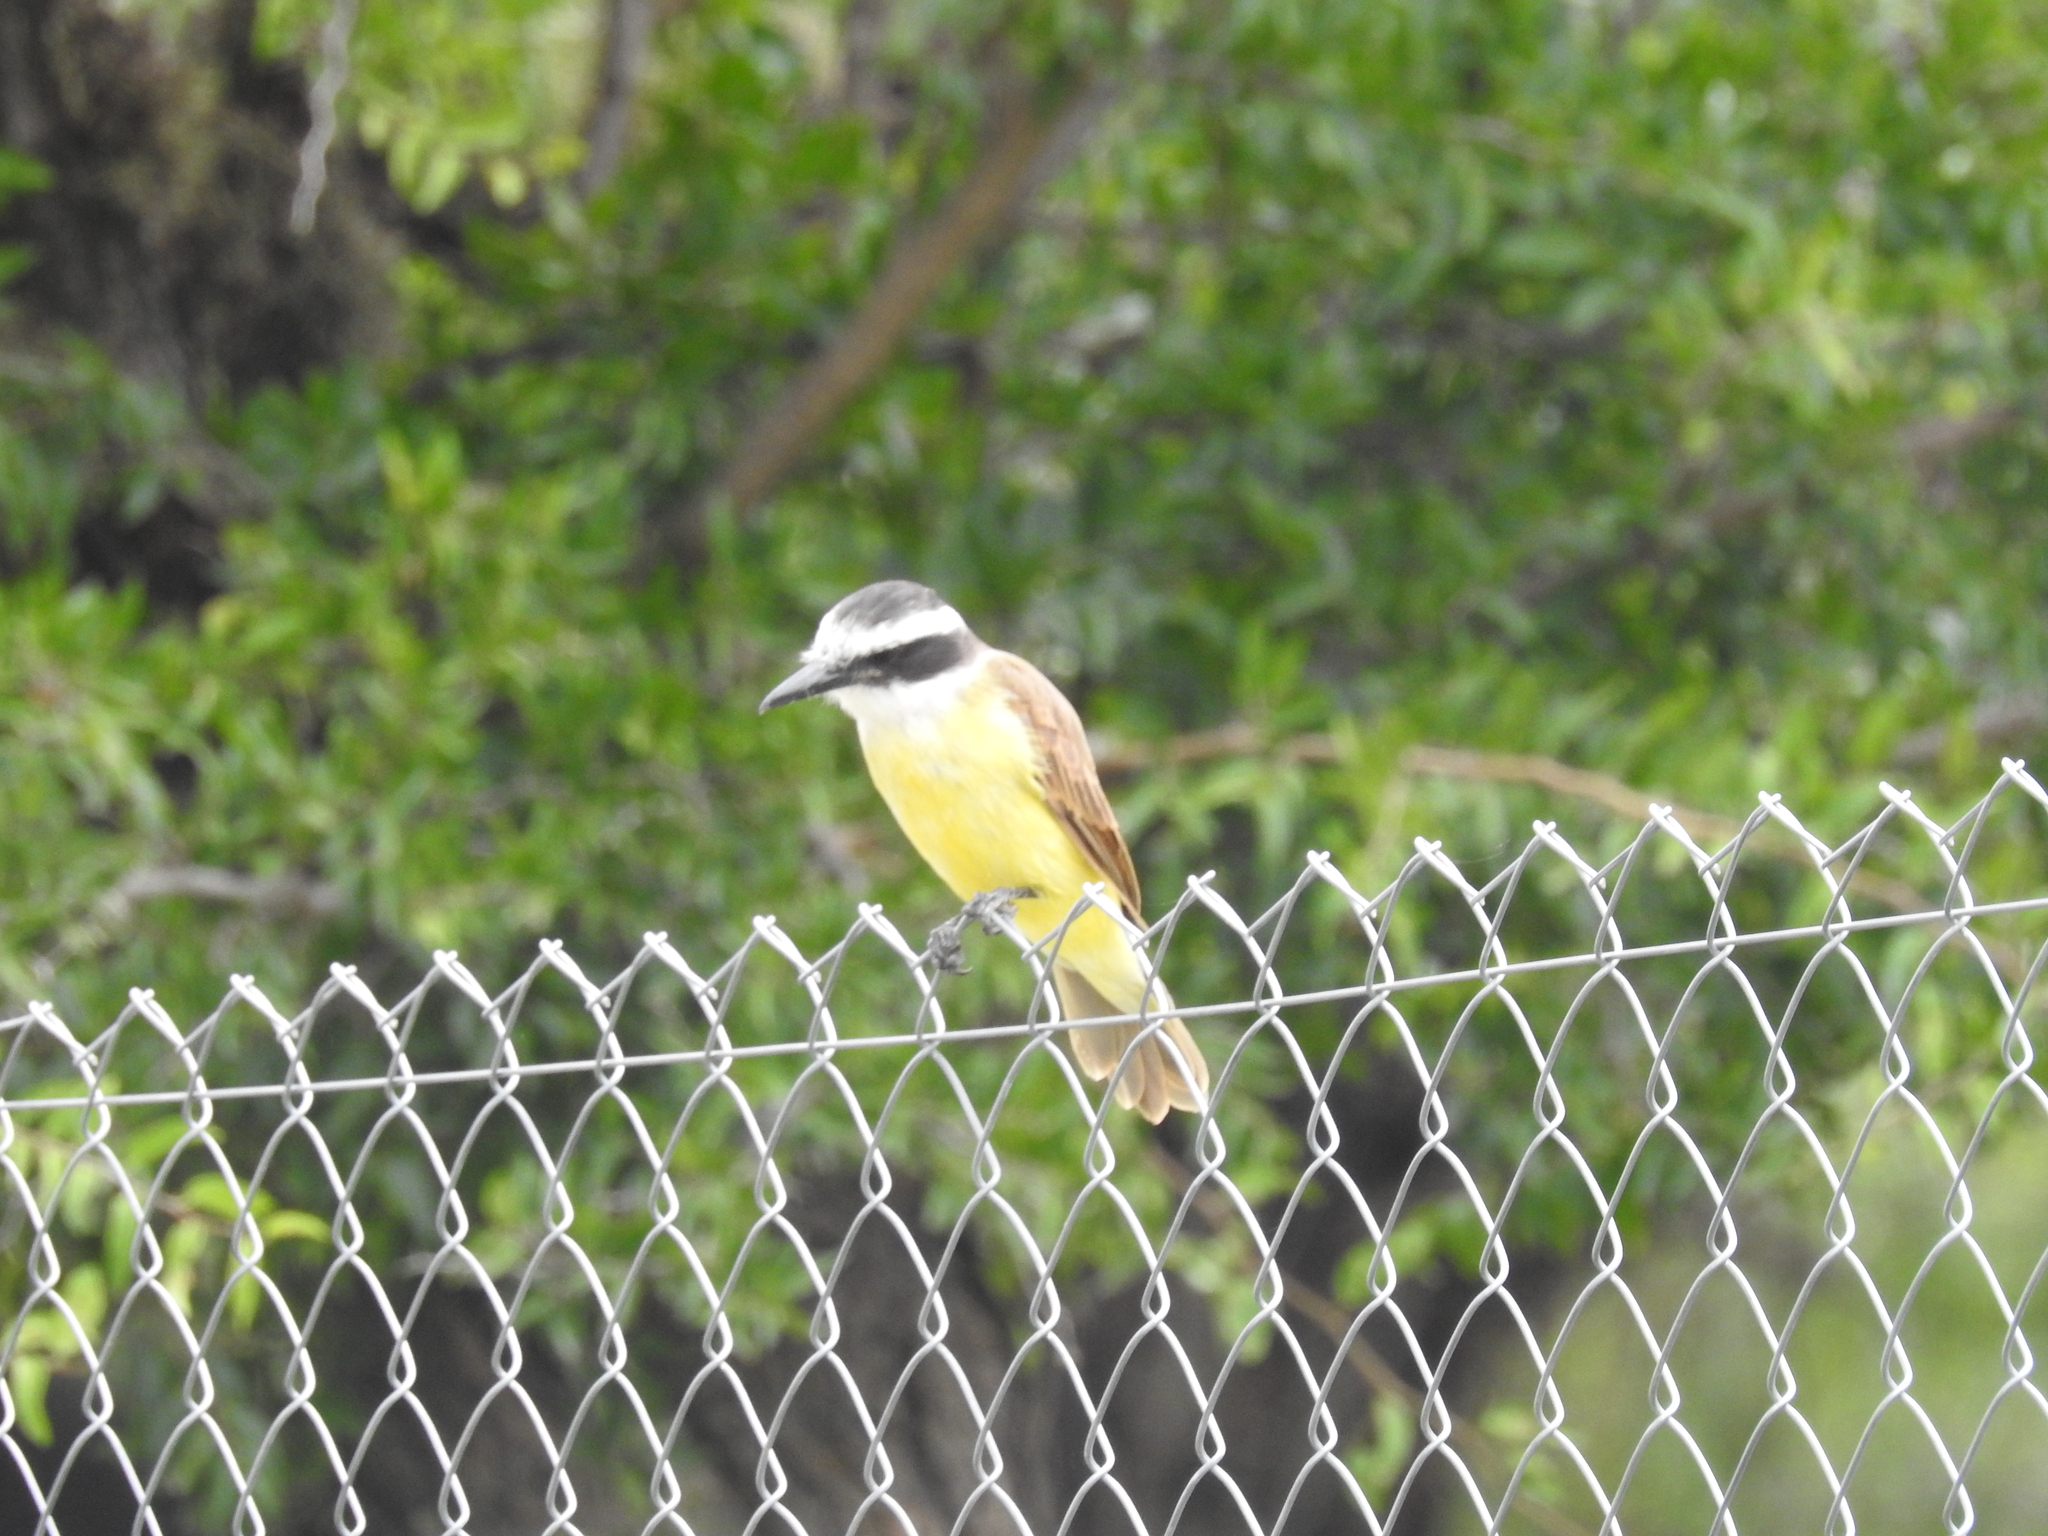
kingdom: Animalia
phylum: Chordata
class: Aves
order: Passeriformes
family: Tyrannidae
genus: Pitangus
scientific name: Pitangus sulphuratus
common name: Great kiskadee
